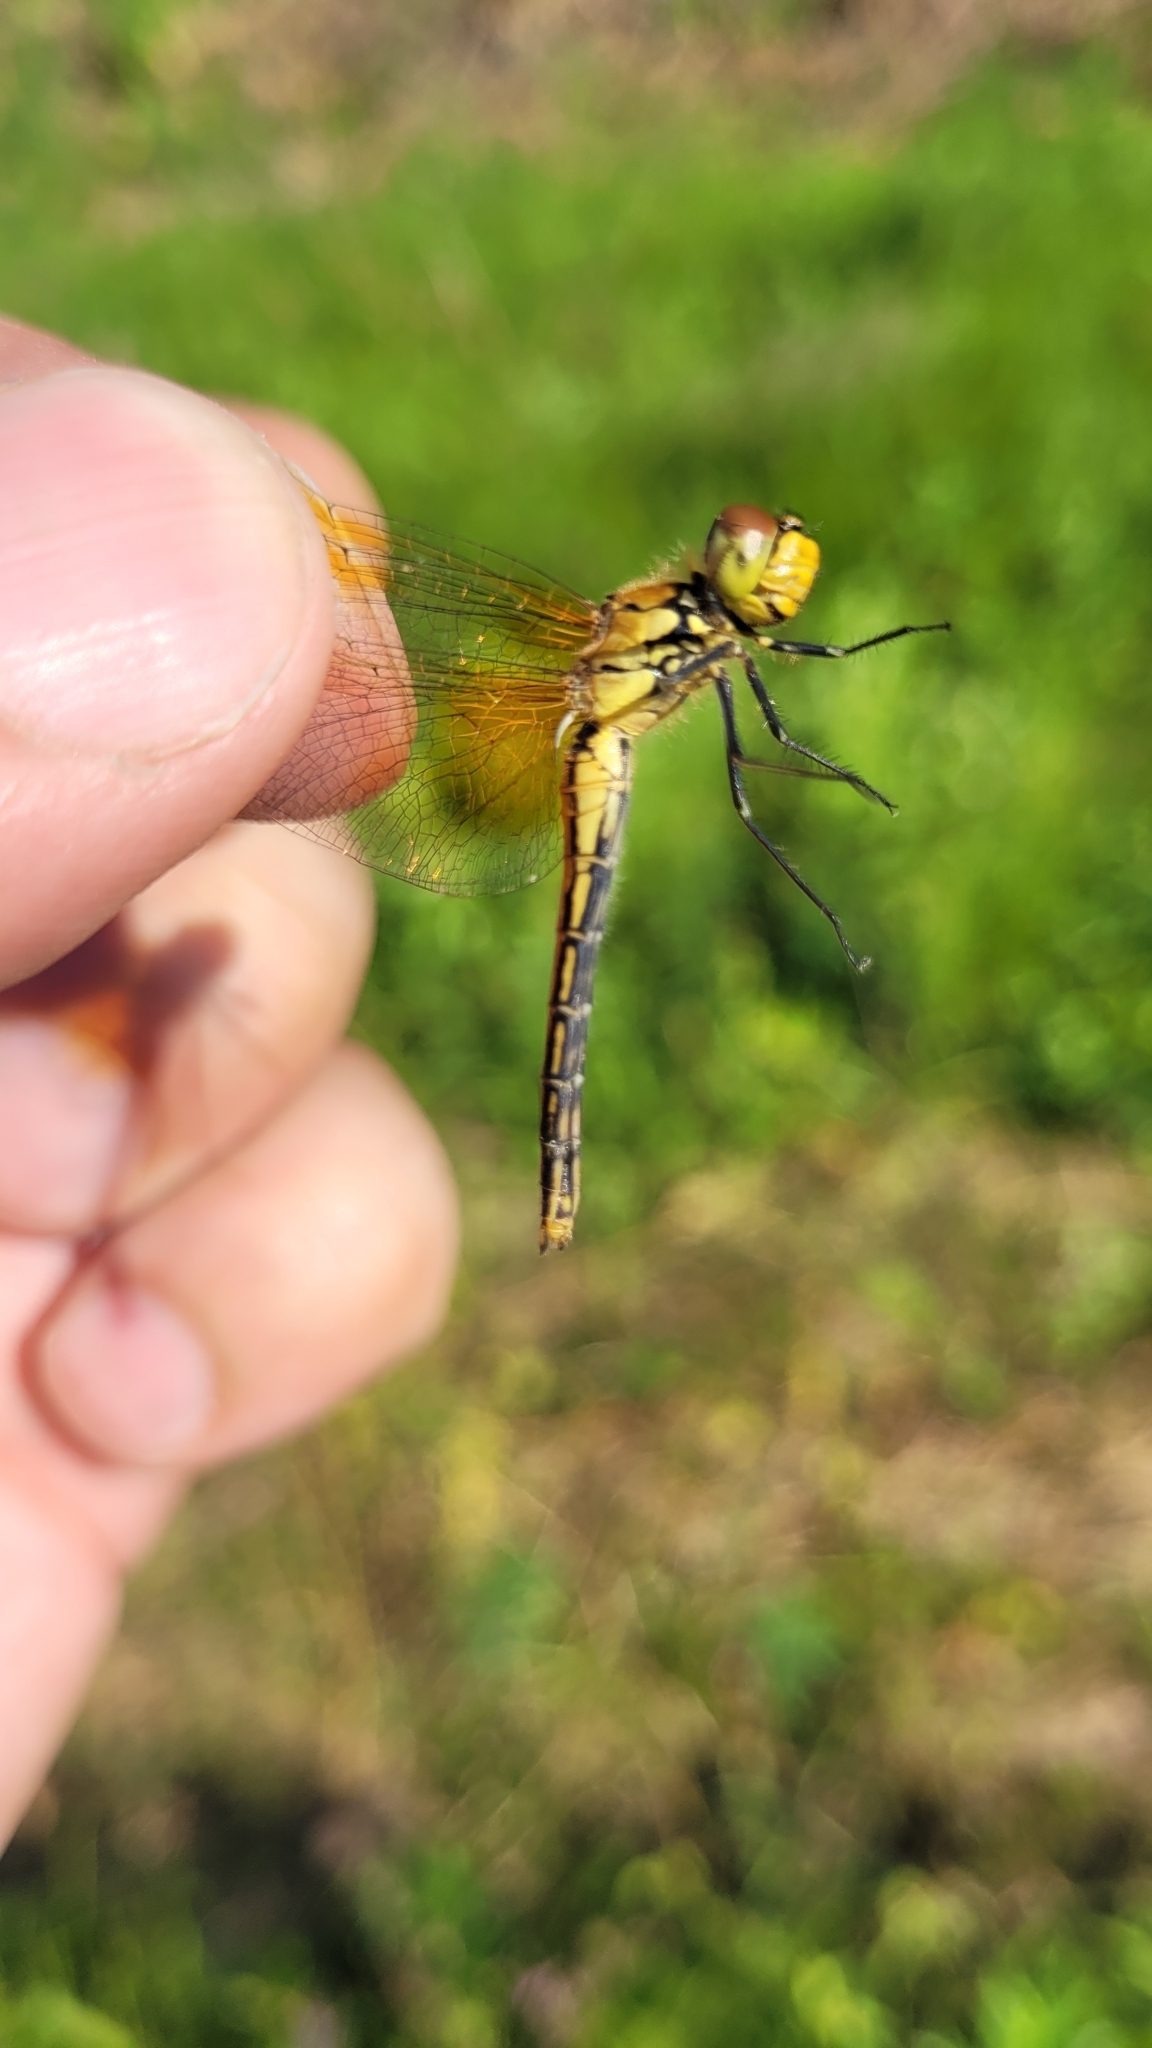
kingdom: Animalia
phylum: Arthropoda
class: Insecta
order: Odonata
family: Libellulidae
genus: Sympetrum
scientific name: Sympetrum flaveolum
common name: Yellow-winged darter
